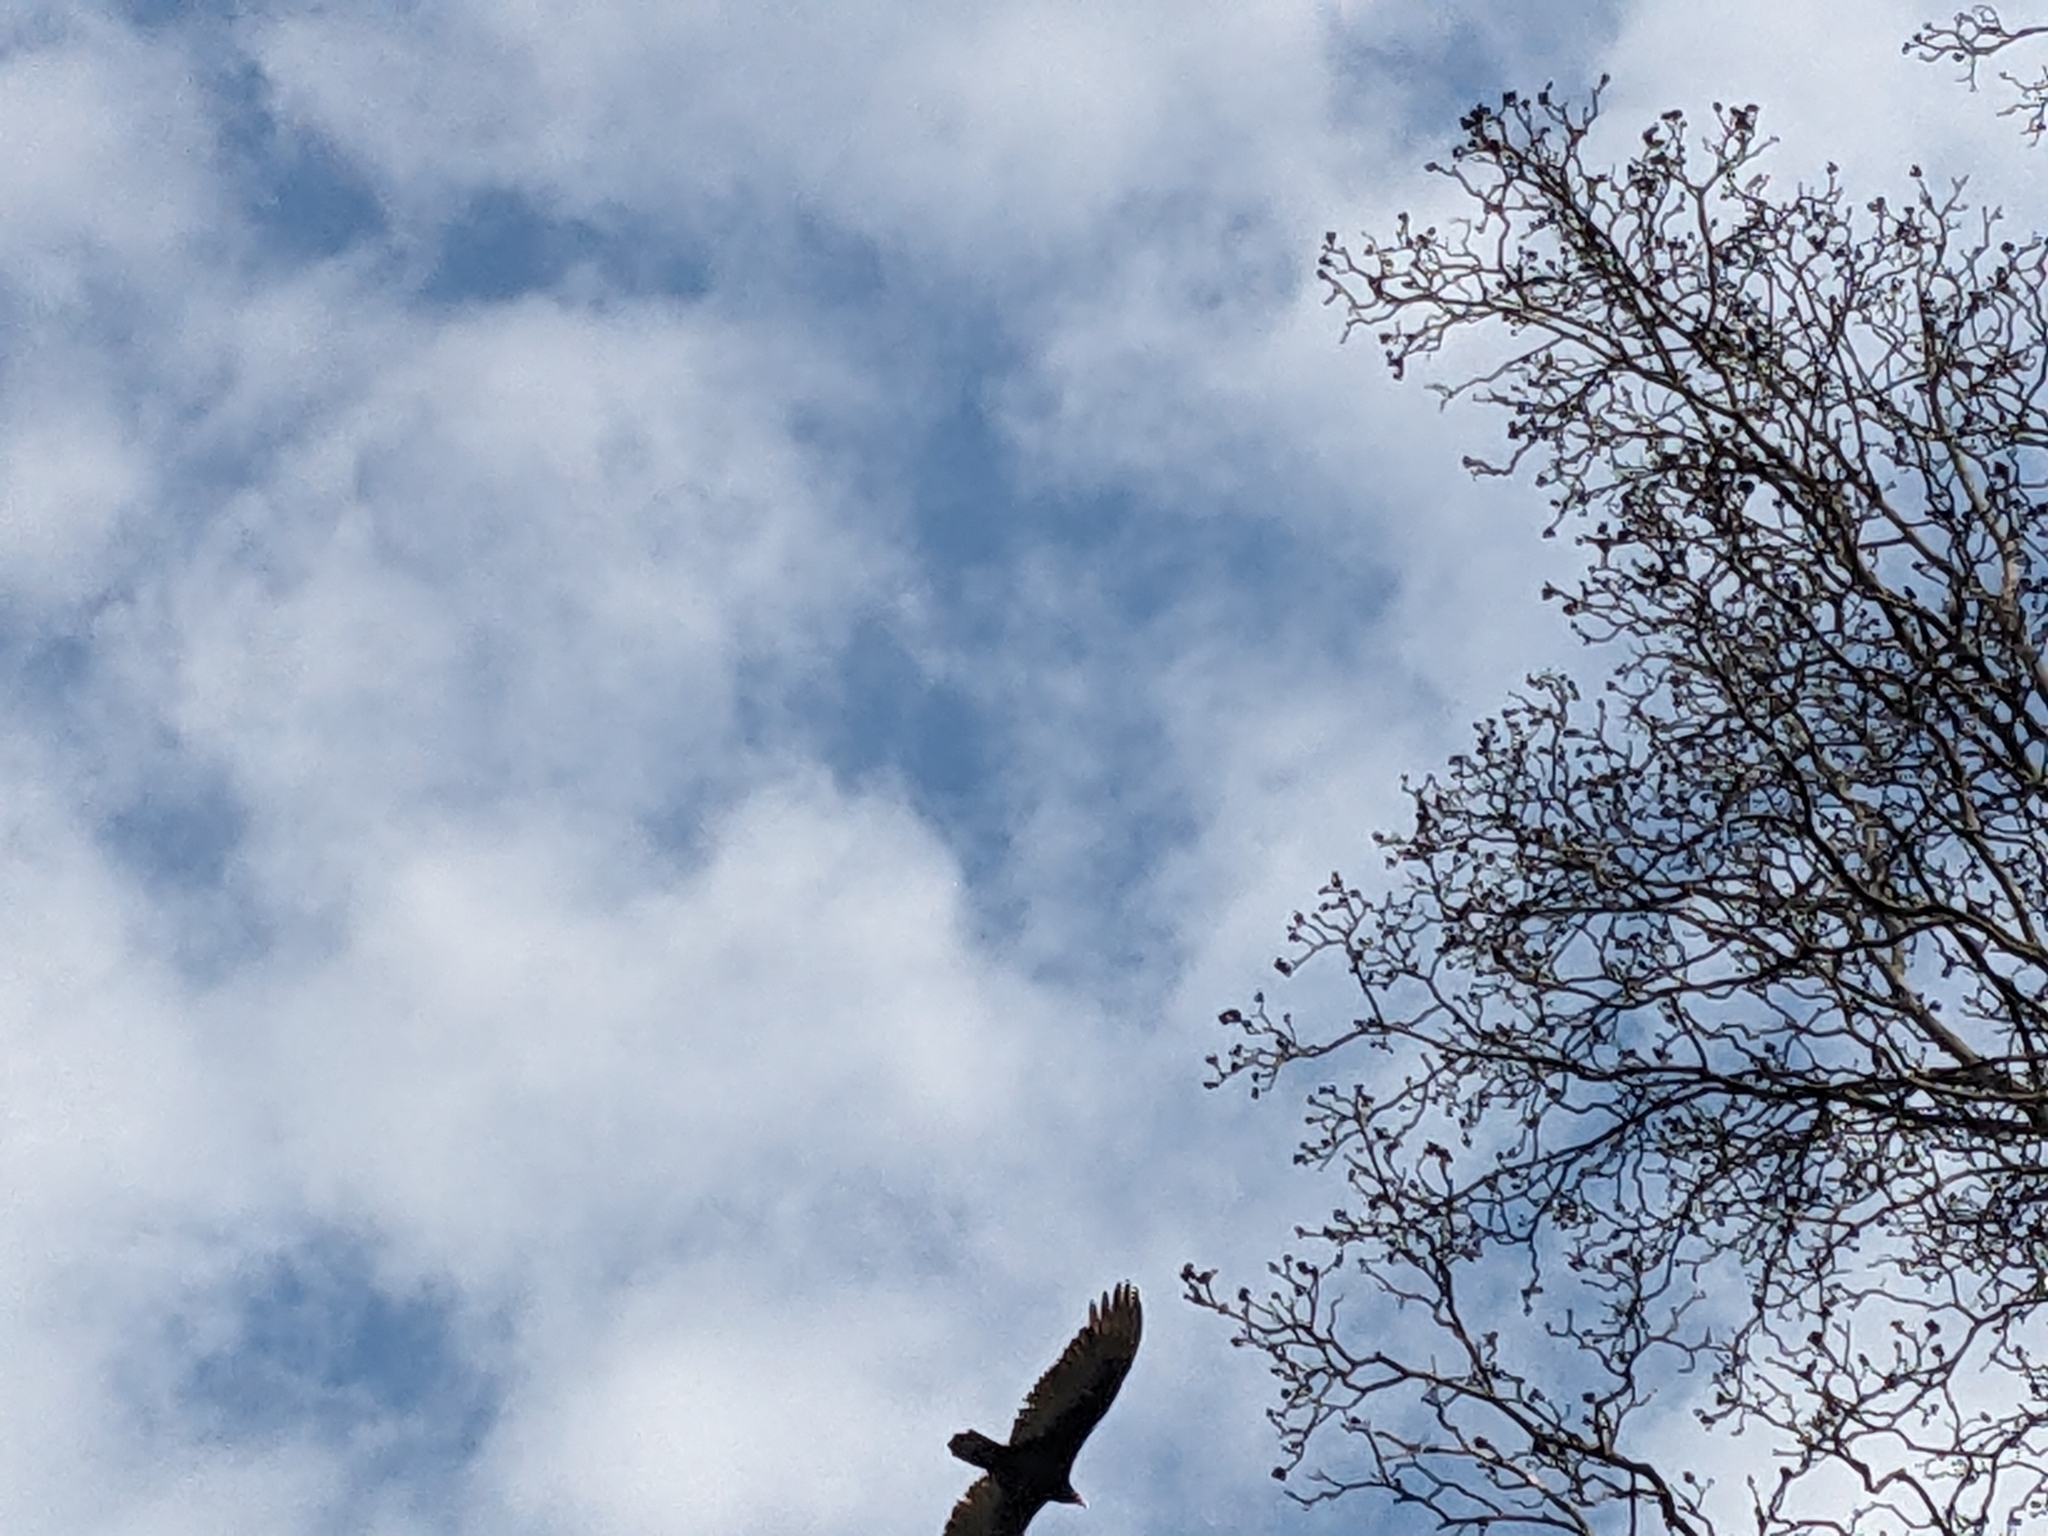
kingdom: Animalia
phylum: Chordata
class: Aves
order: Accipitriformes
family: Cathartidae
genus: Cathartes
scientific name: Cathartes aura
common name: Turkey vulture
